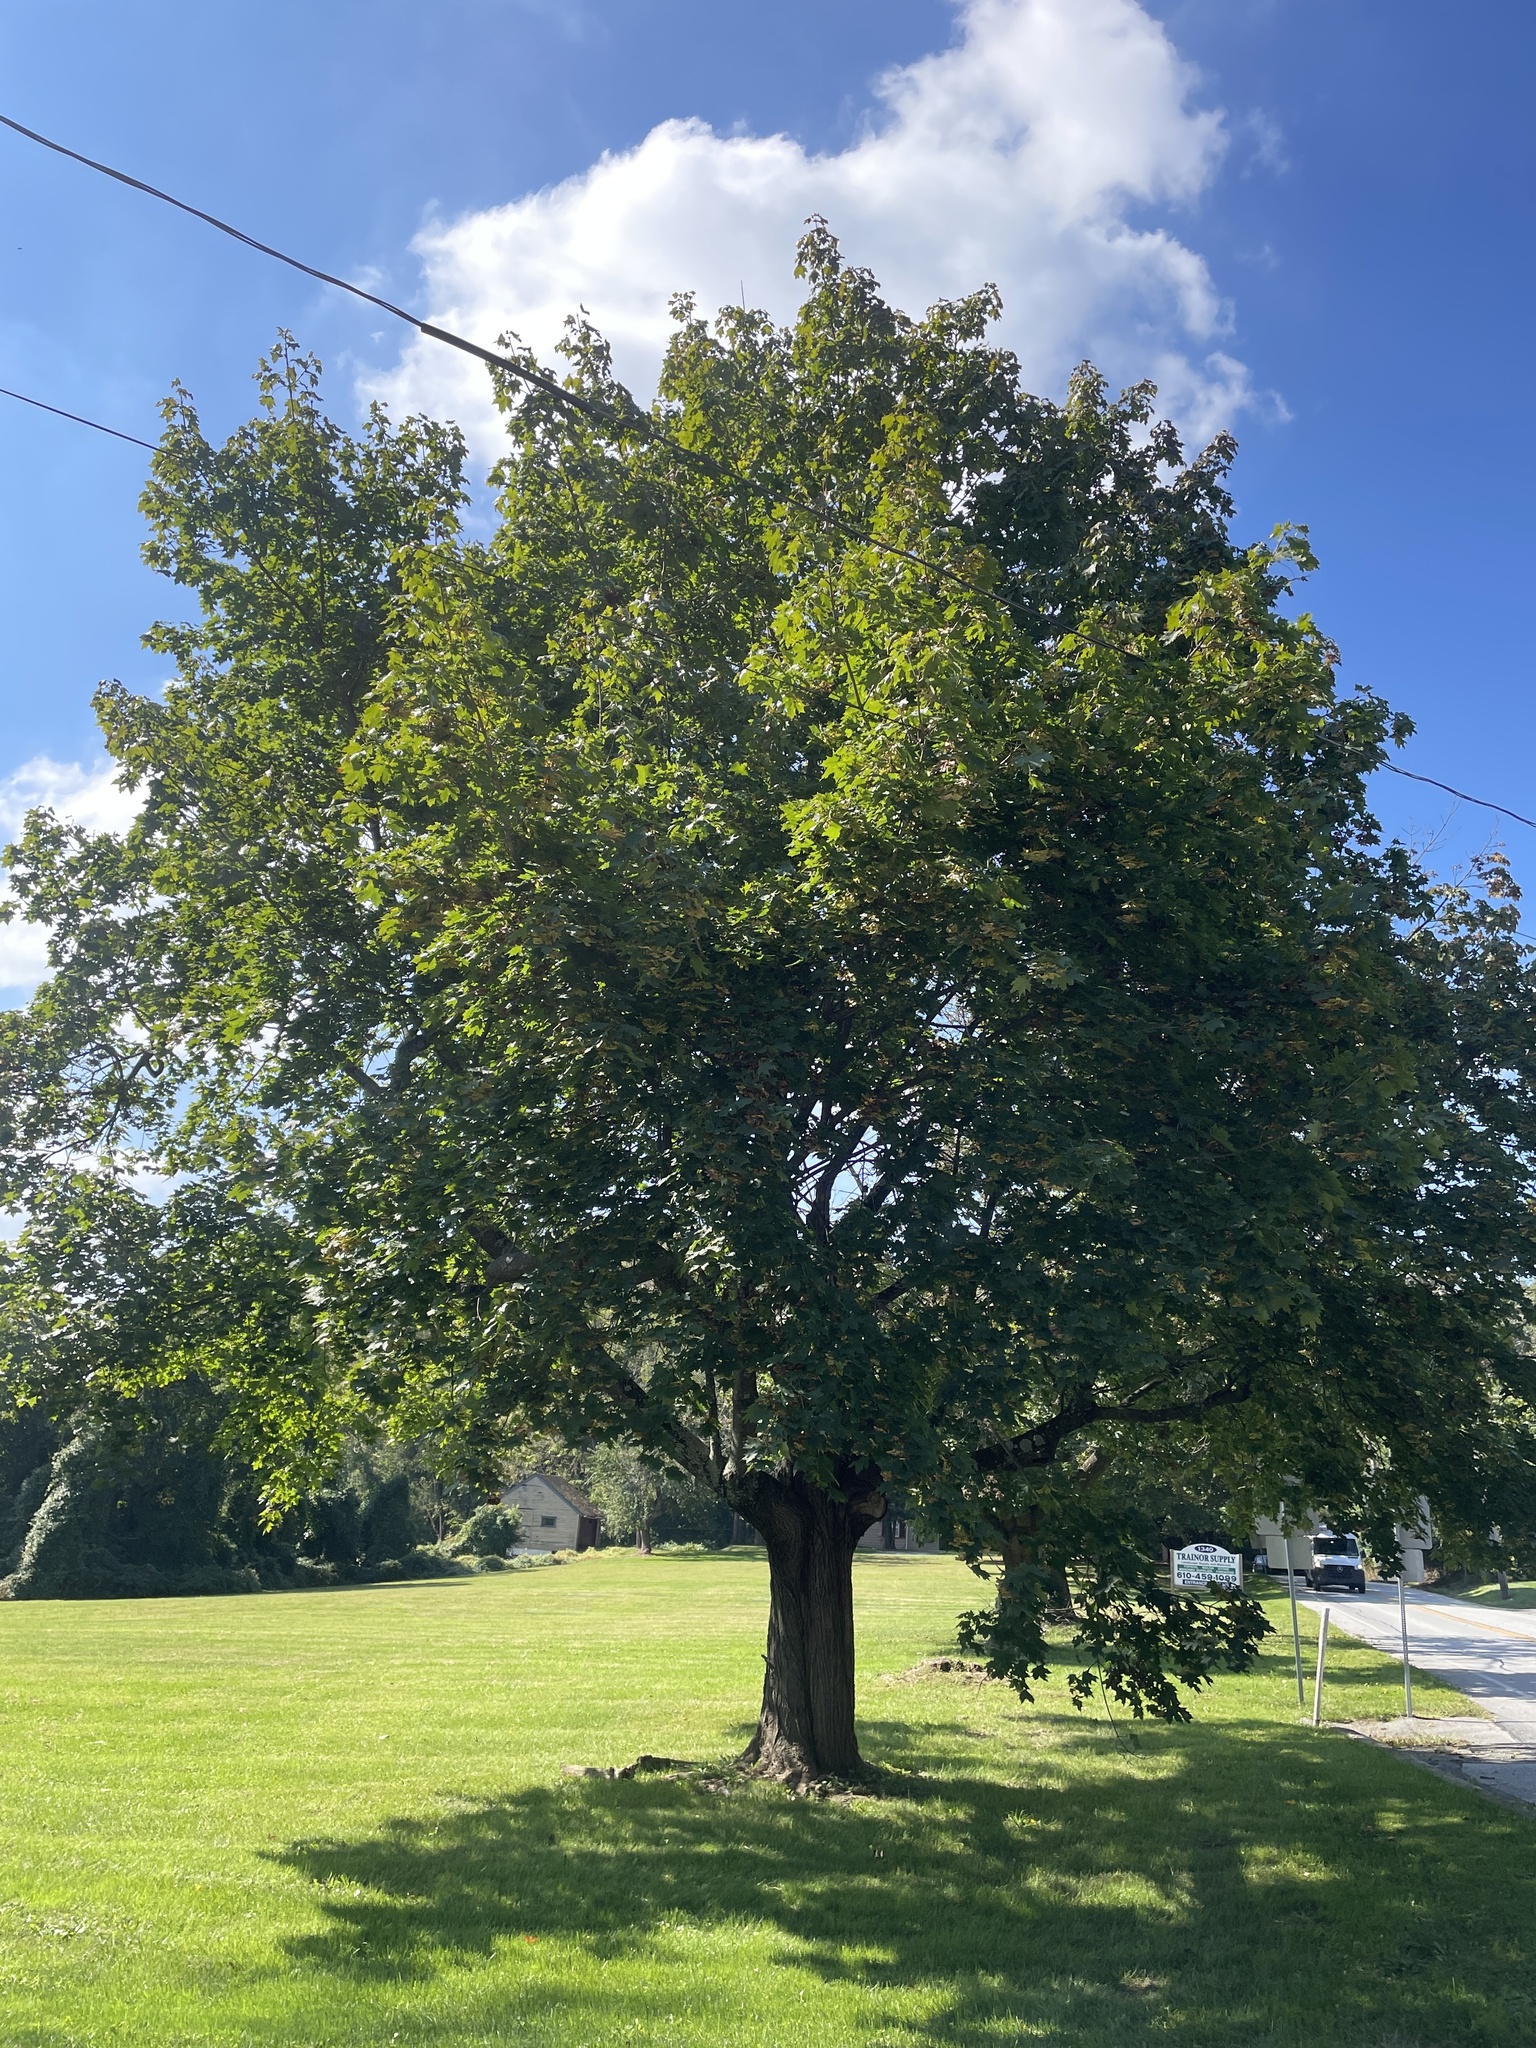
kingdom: Plantae
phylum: Tracheophyta
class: Magnoliopsida
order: Sapindales
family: Sapindaceae
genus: Acer
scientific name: Acer platanoides
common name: Norway maple
